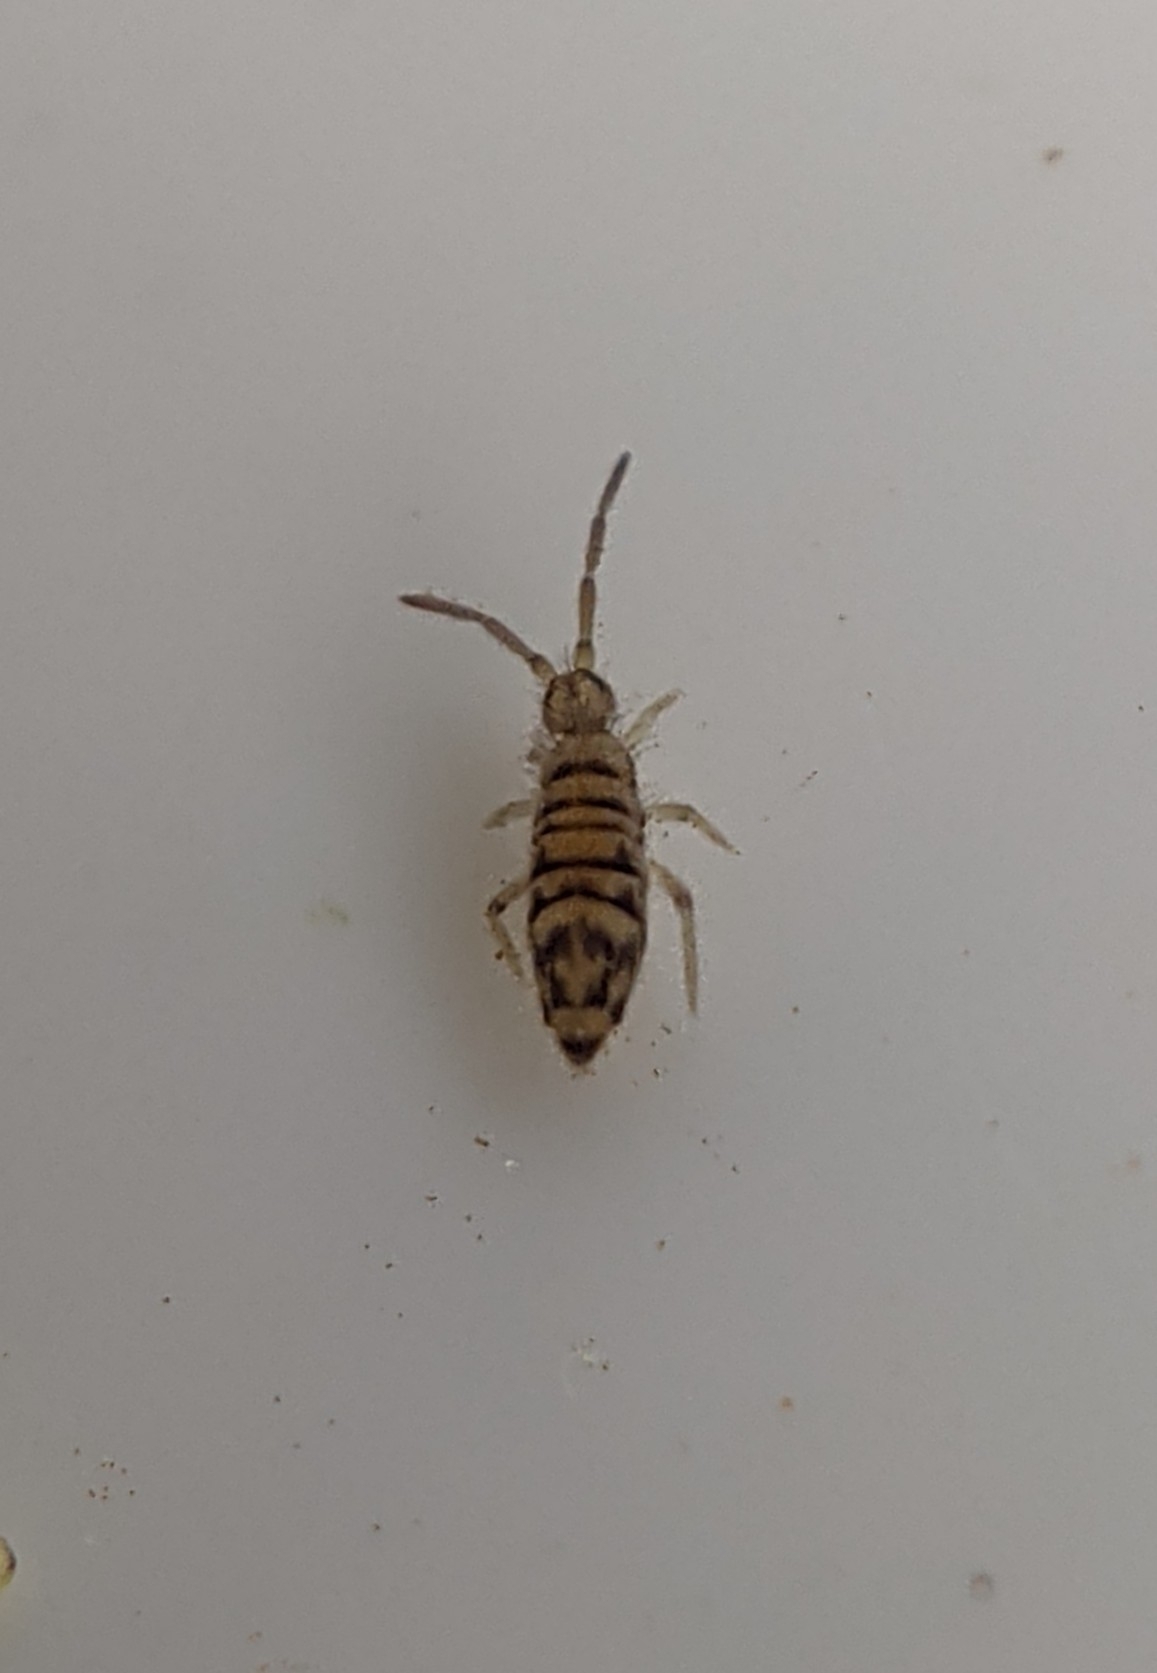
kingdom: Animalia
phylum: Arthropoda
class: Collembola
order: Entomobryomorpha
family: Entomobryidae
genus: Entomobrya
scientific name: Entomobrya multifasciata
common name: Springtail
